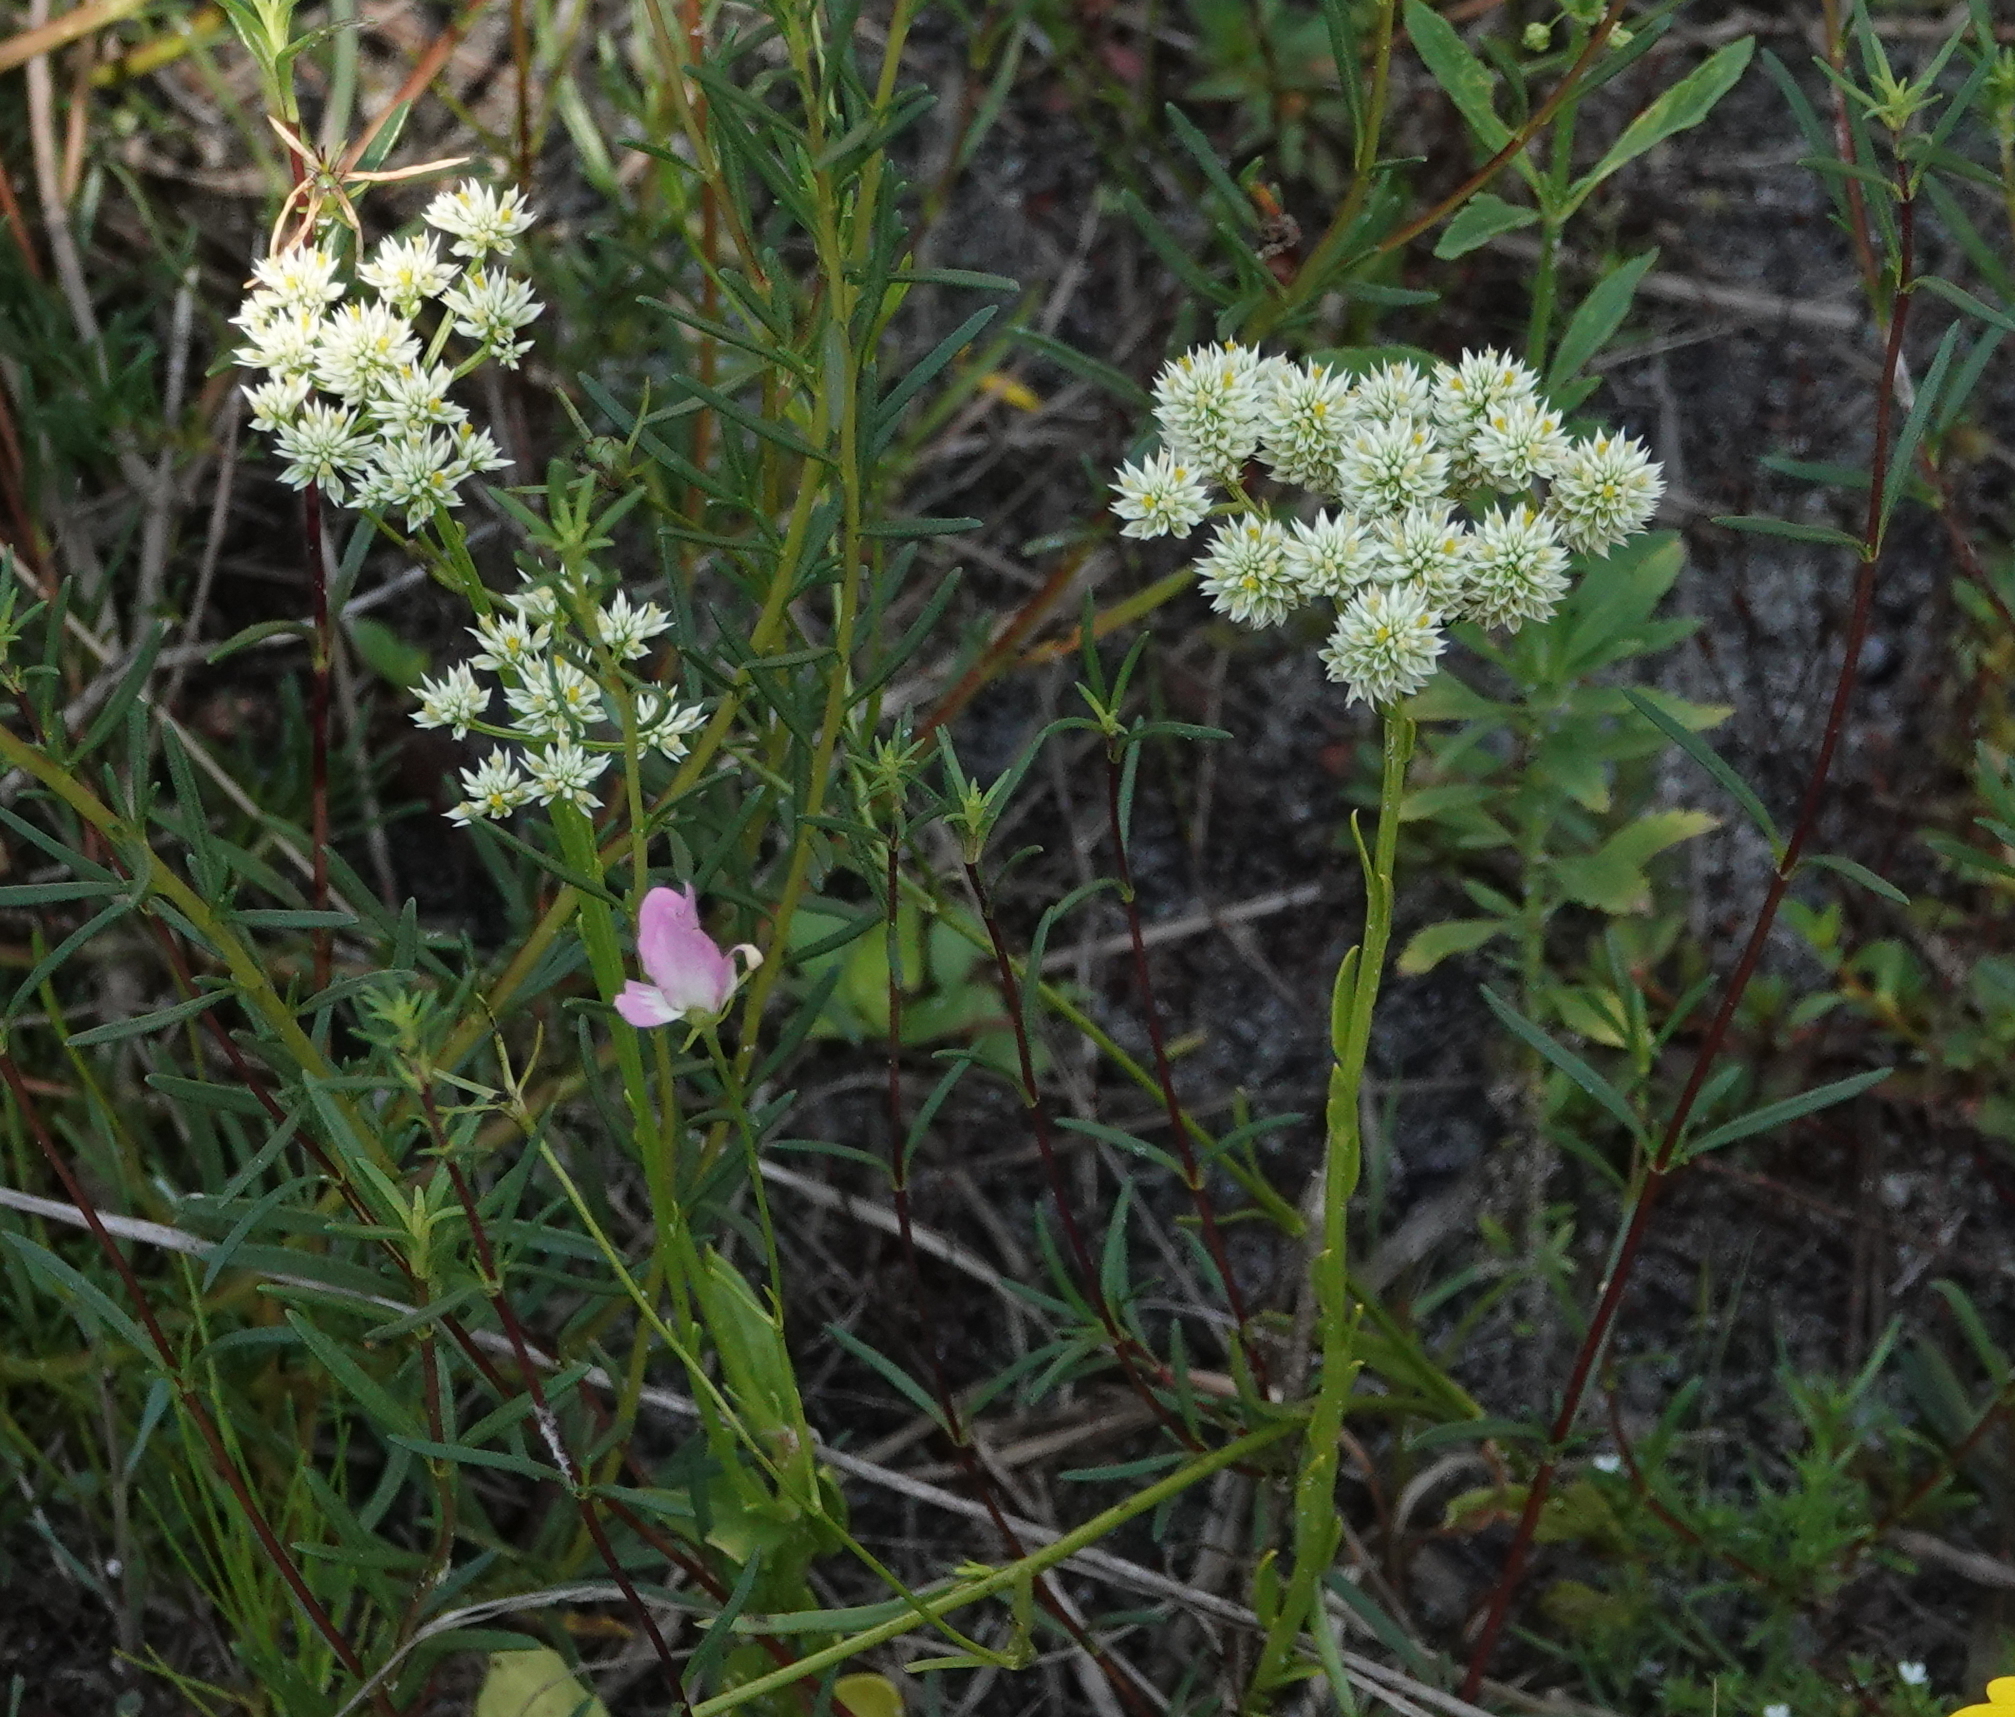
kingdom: Plantae
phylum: Tracheophyta
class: Magnoliopsida
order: Fabales
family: Polygalaceae
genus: Polygala
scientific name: Polygala baldwinii
